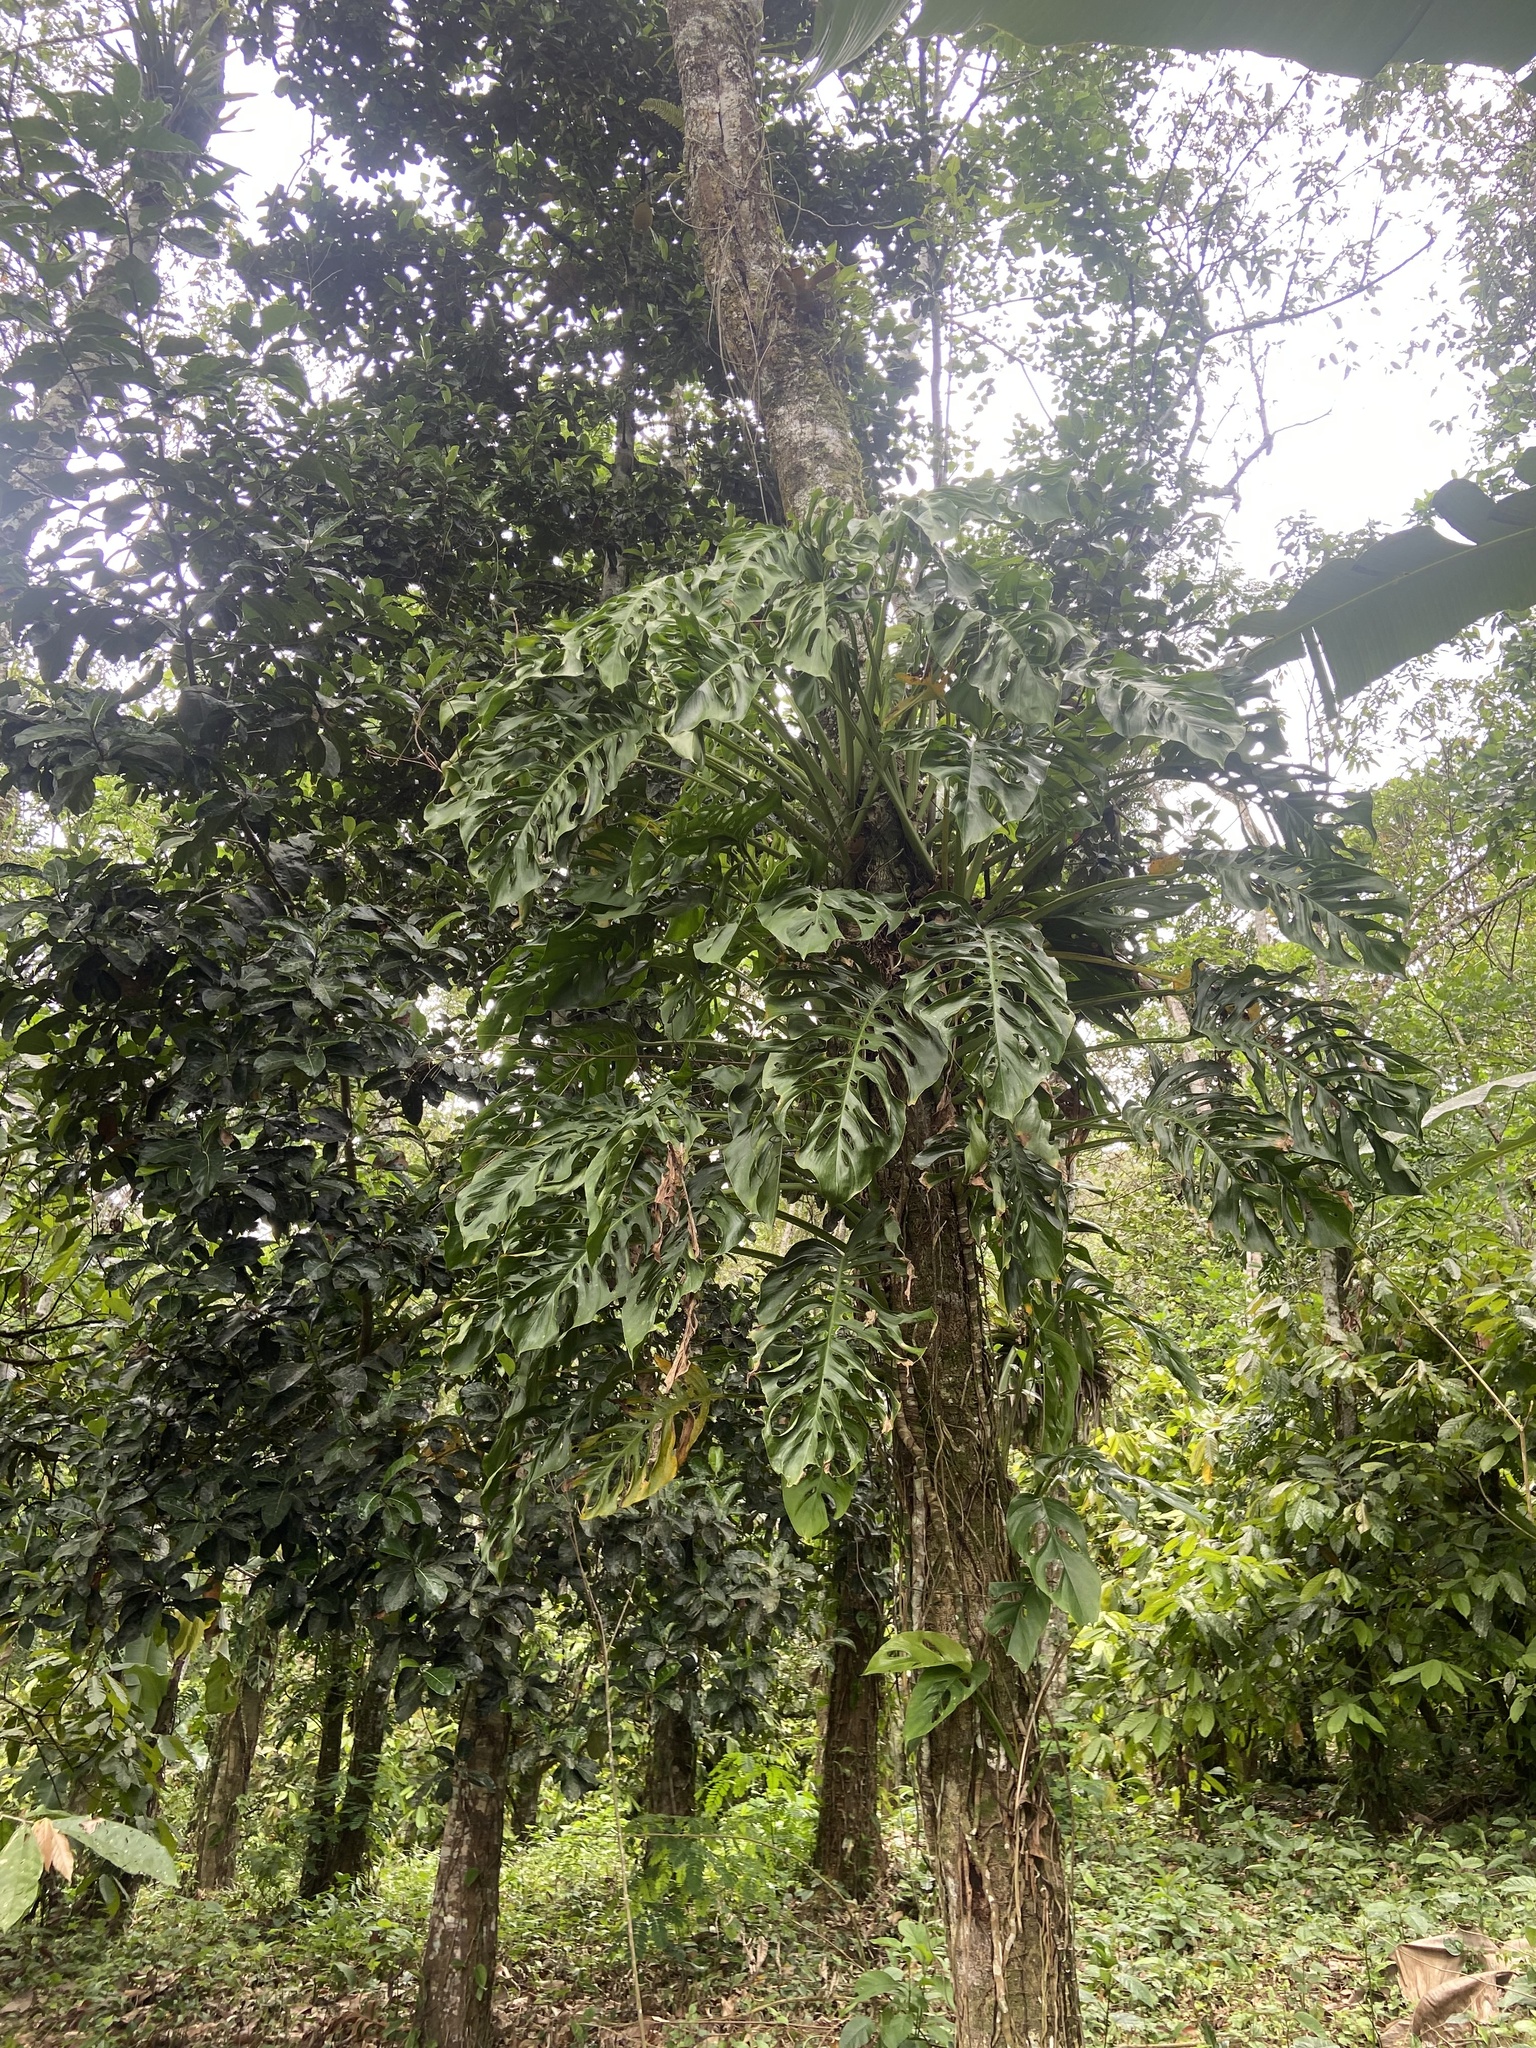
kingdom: Plantae
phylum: Tracheophyta
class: Liliopsida
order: Alismatales
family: Araceae
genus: Monstera
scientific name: Monstera adansonii
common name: Tarovine
